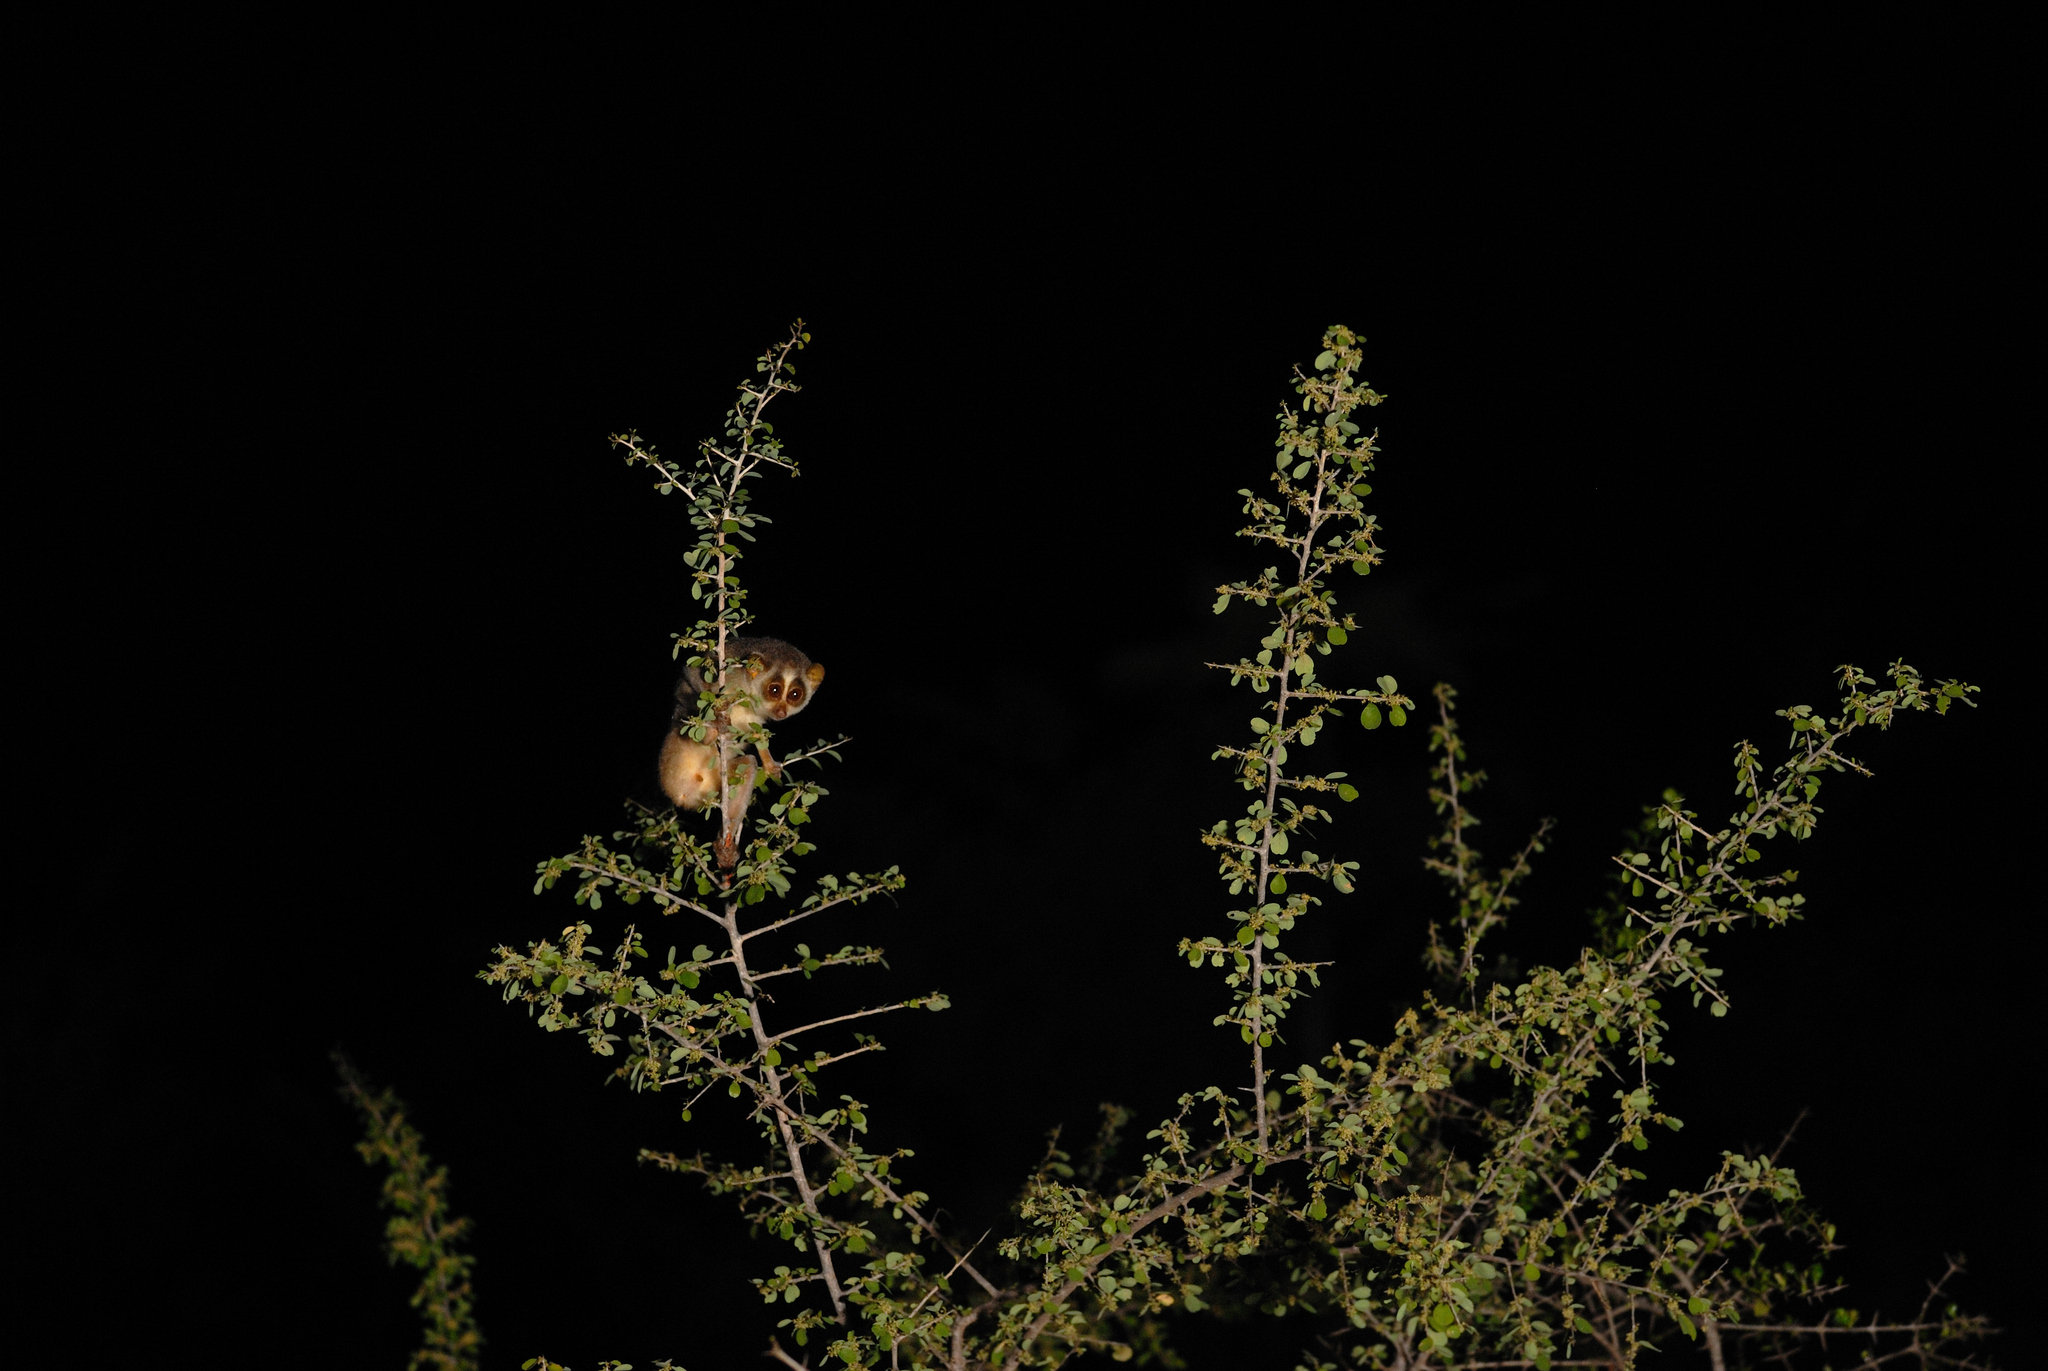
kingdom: Animalia
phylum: Chordata
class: Mammalia
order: Primates
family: Lorisidae
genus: Loris
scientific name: Loris lydekkerianus
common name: Gray slender loris
